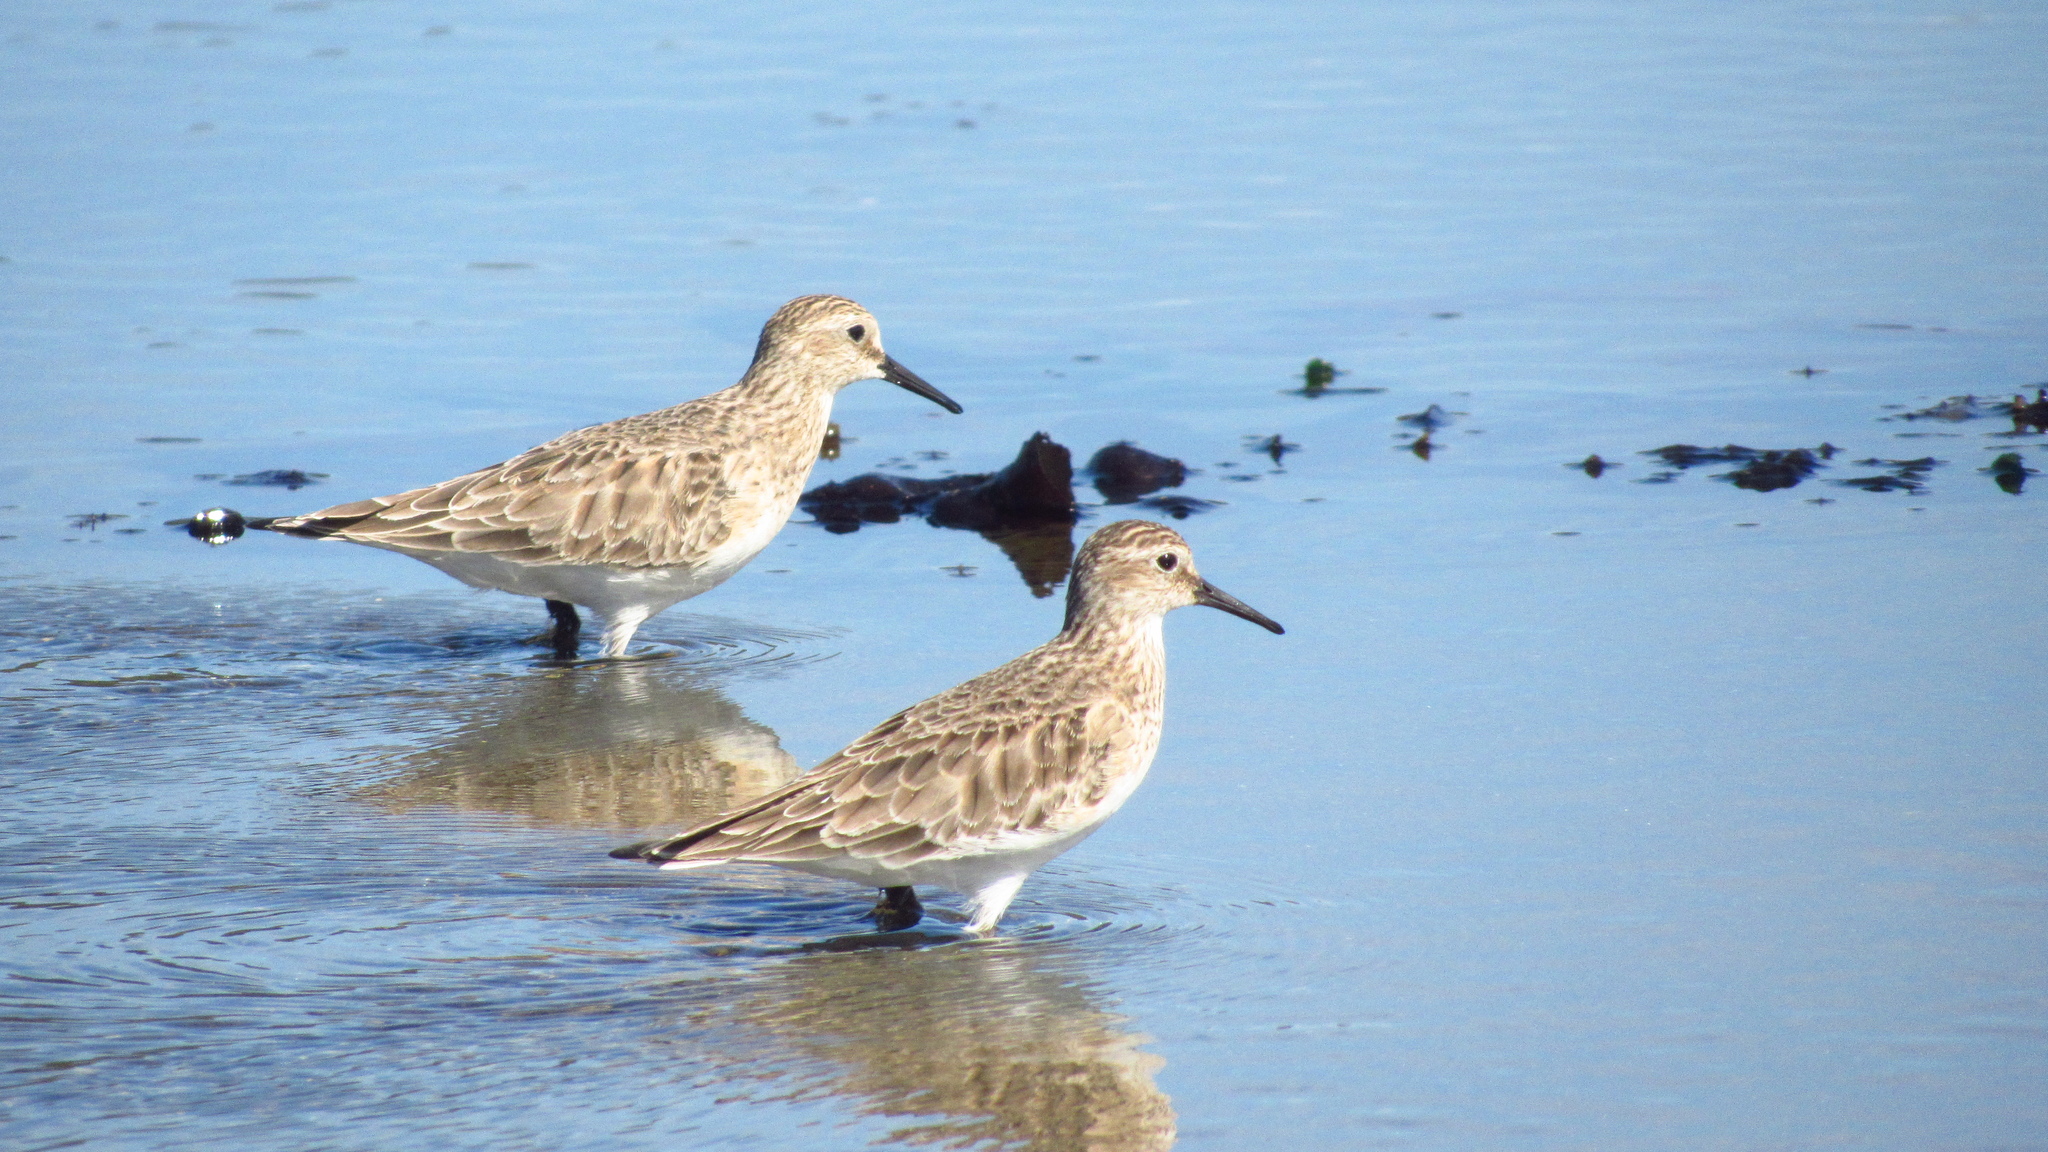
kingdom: Animalia
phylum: Chordata
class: Aves
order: Charadriiformes
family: Scolopacidae
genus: Calidris
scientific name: Calidris bairdii
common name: Baird's sandpiper
